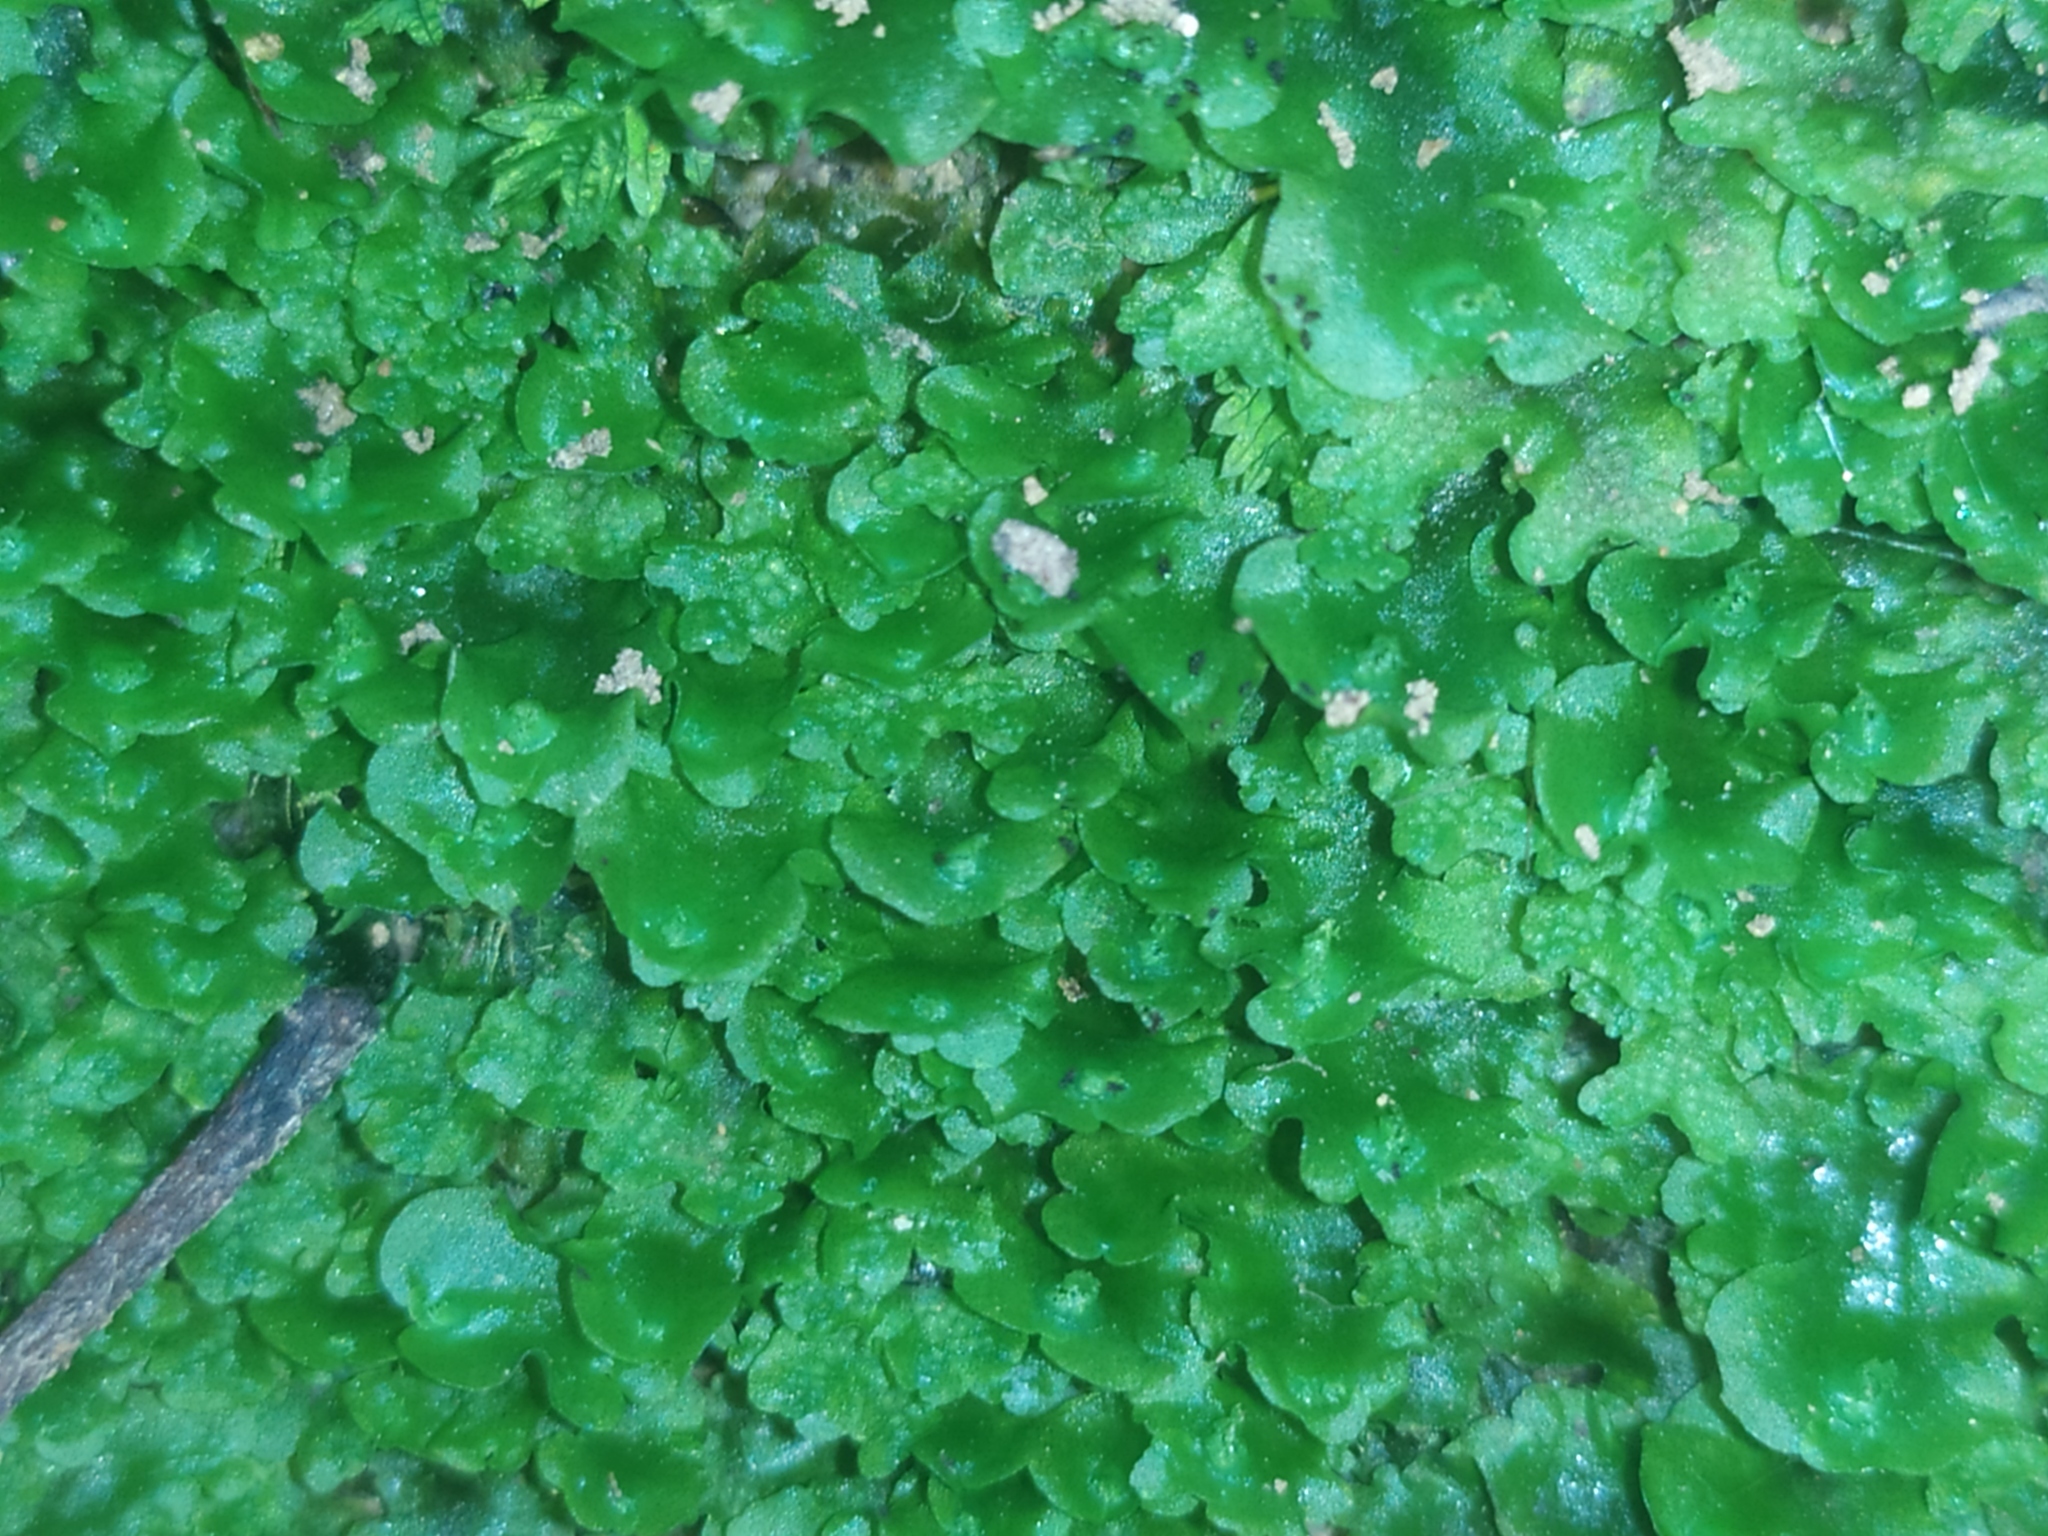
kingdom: Plantae
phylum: Marchantiophyta
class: Jungermanniopsida
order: Pelliales
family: Pelliaceae
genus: Pellia
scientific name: Pellia epiphylla
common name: Common pellia
